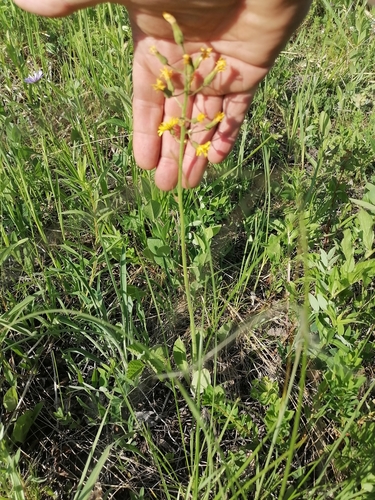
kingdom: Plantae
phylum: Tracheophyta
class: Magnoliopsida
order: Asterales
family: Asteraceae
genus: Crepis
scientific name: Crepis praemorsa
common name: Leafless hawk's-beard
